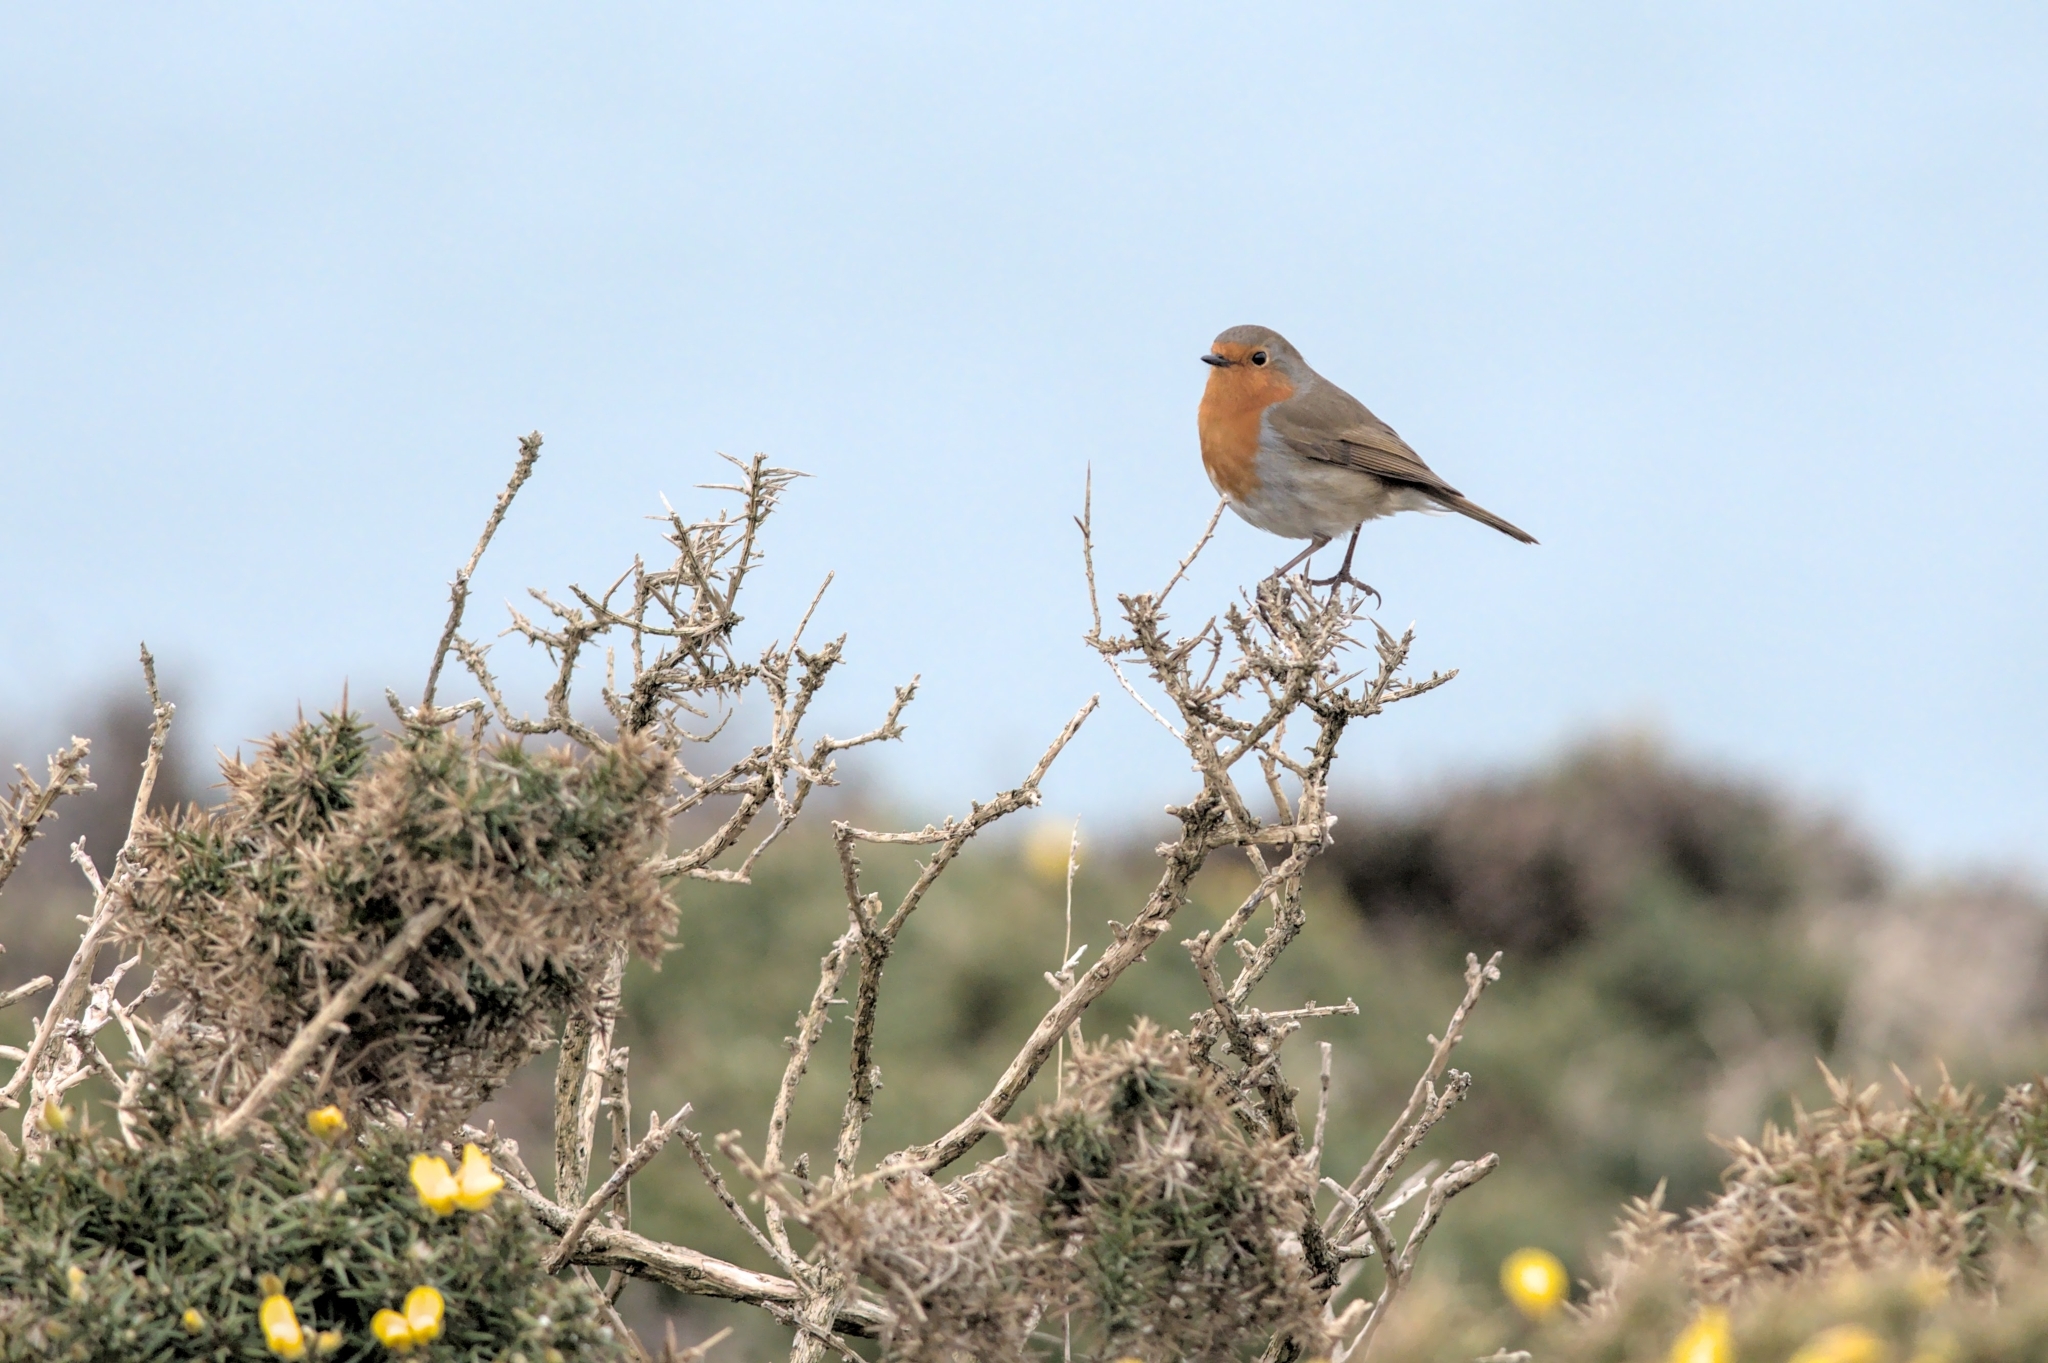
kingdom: Animalia
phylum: Chordata
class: Aves
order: Passeriformes
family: Muscicapidae
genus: Erithacus
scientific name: Erithacus rubecula
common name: European robin
